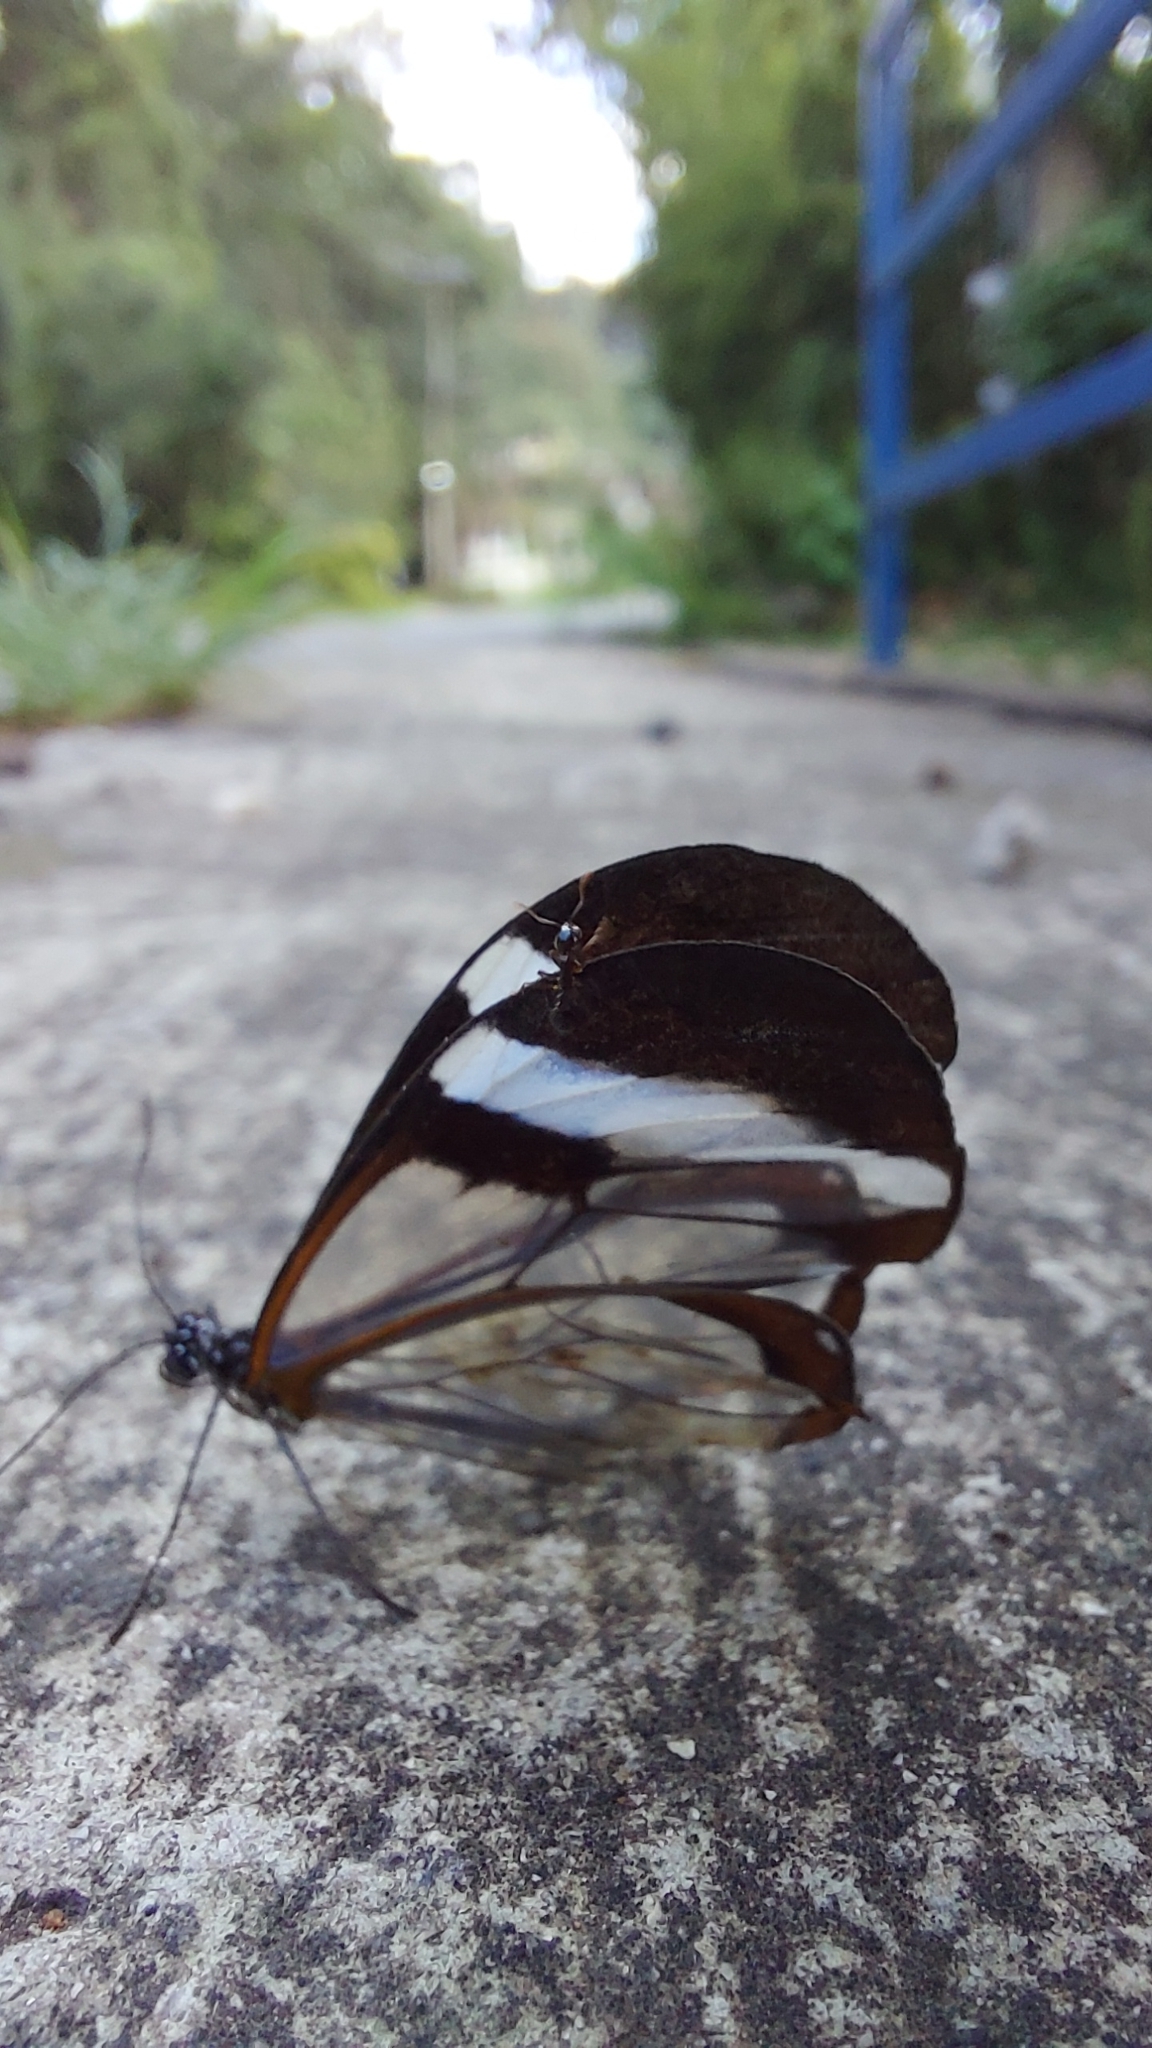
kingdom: Animalia
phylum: Arthropoda
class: Insecta
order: Lepidoptera
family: Nymphalidae
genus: Greta
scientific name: Greta morgane
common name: Thick-tipped greta
